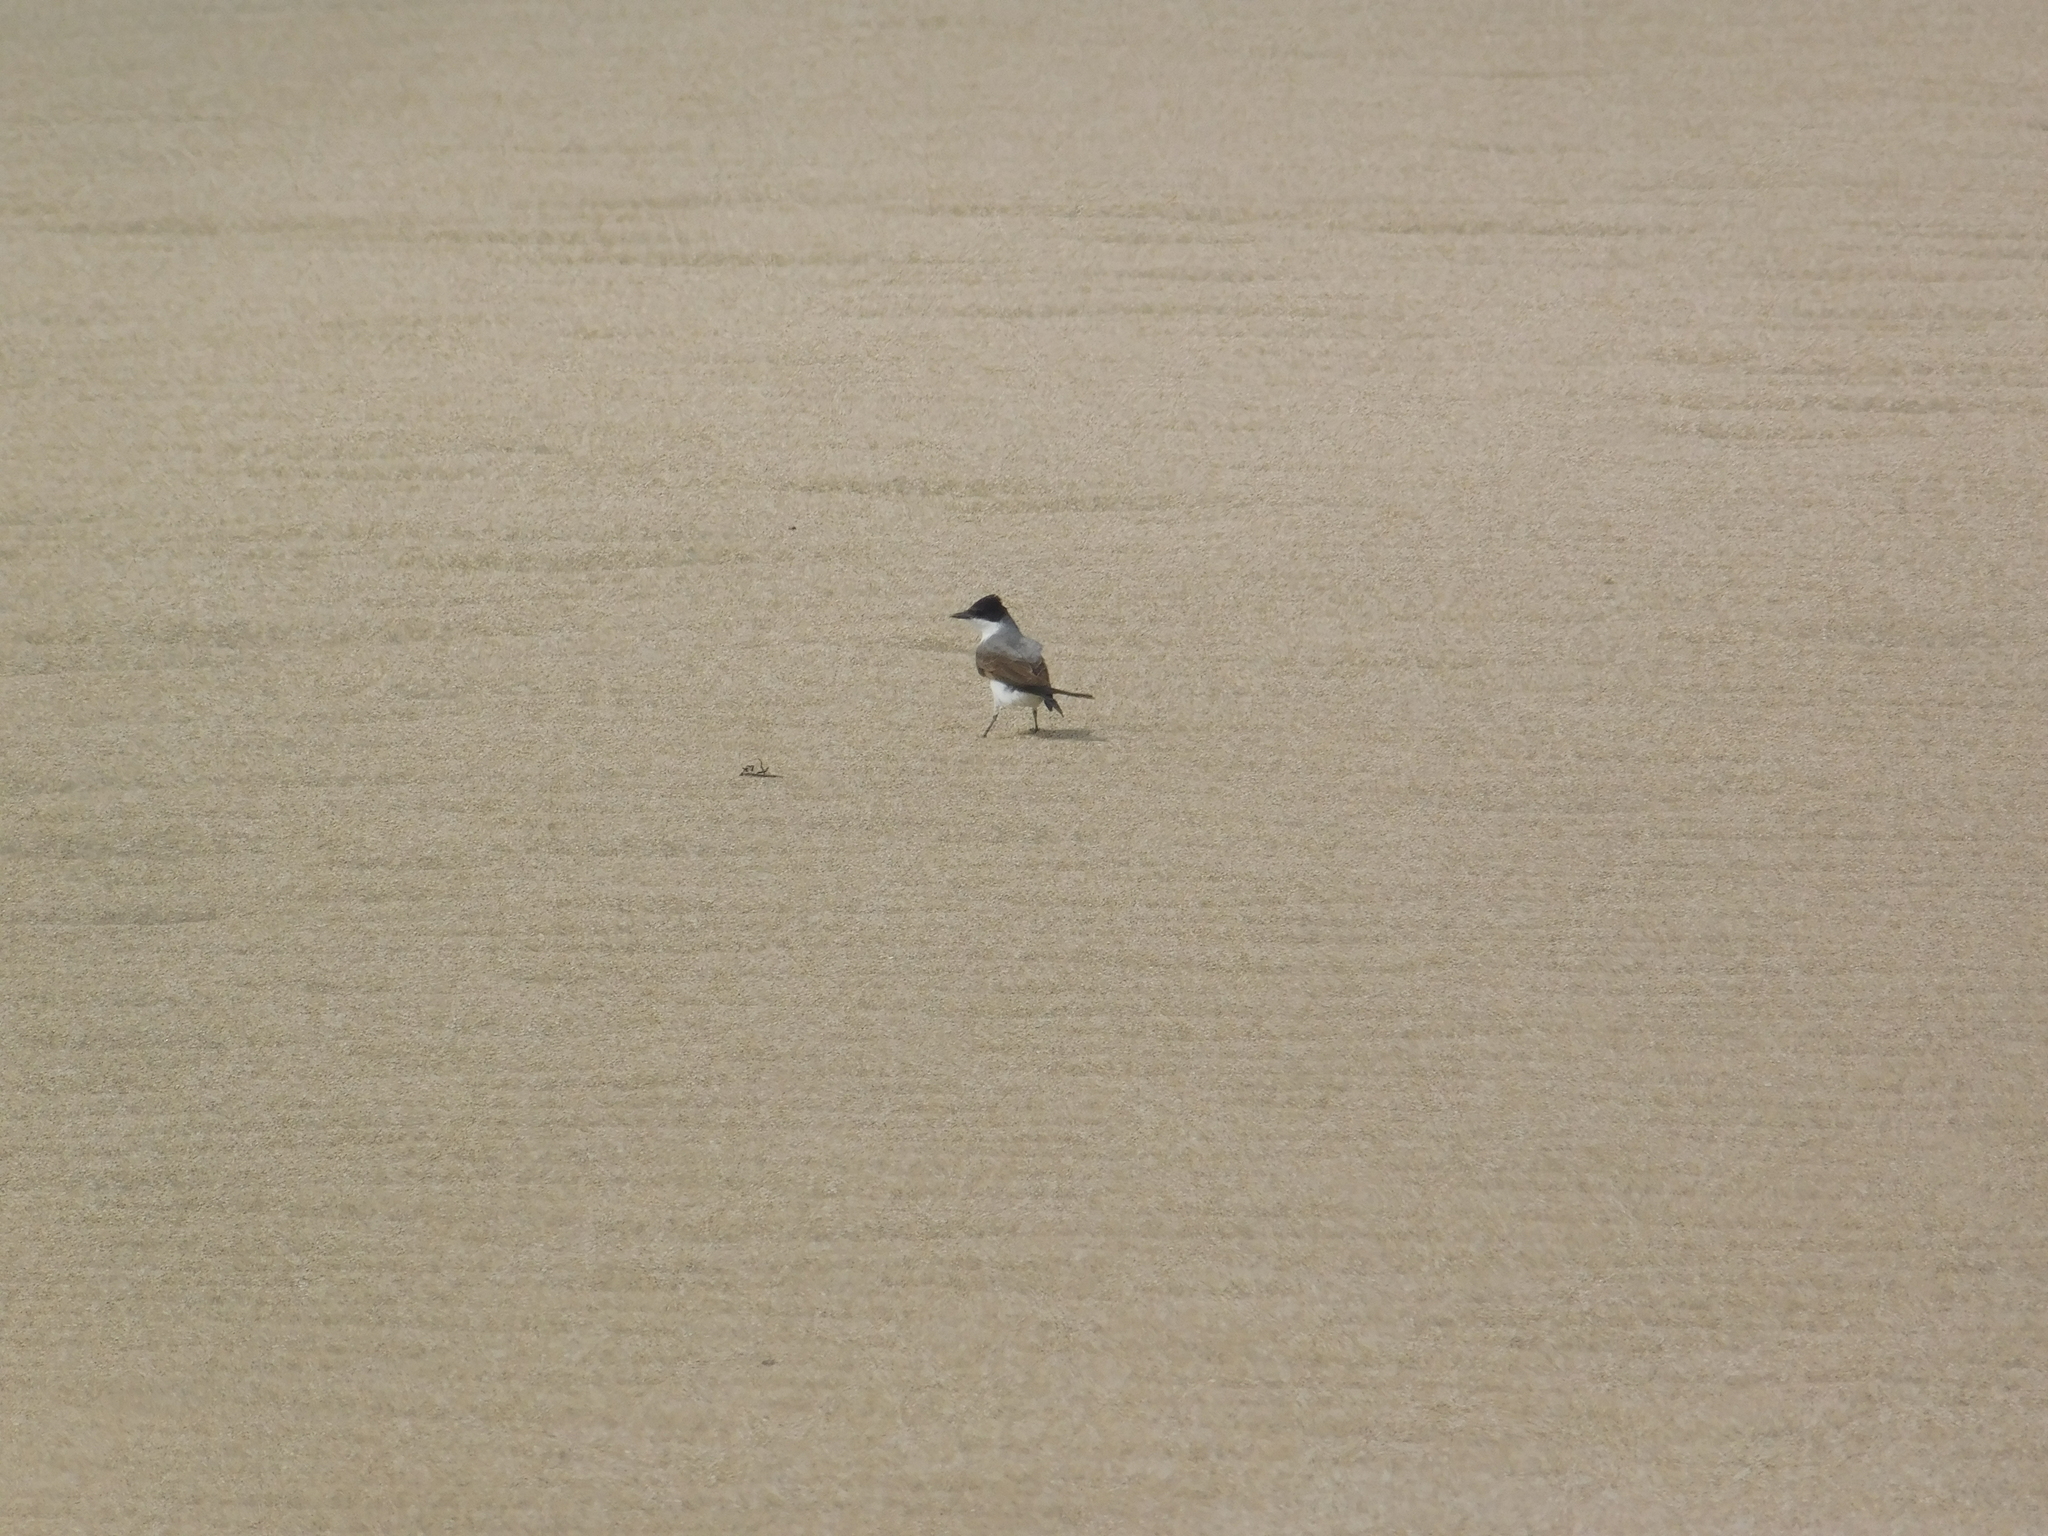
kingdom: Animalia
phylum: Chordata
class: Aves
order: Passeriformes
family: Tyrannidae
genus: Tyrannus
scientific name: Tyrannus savana
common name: Fork-tailed flycatcher
